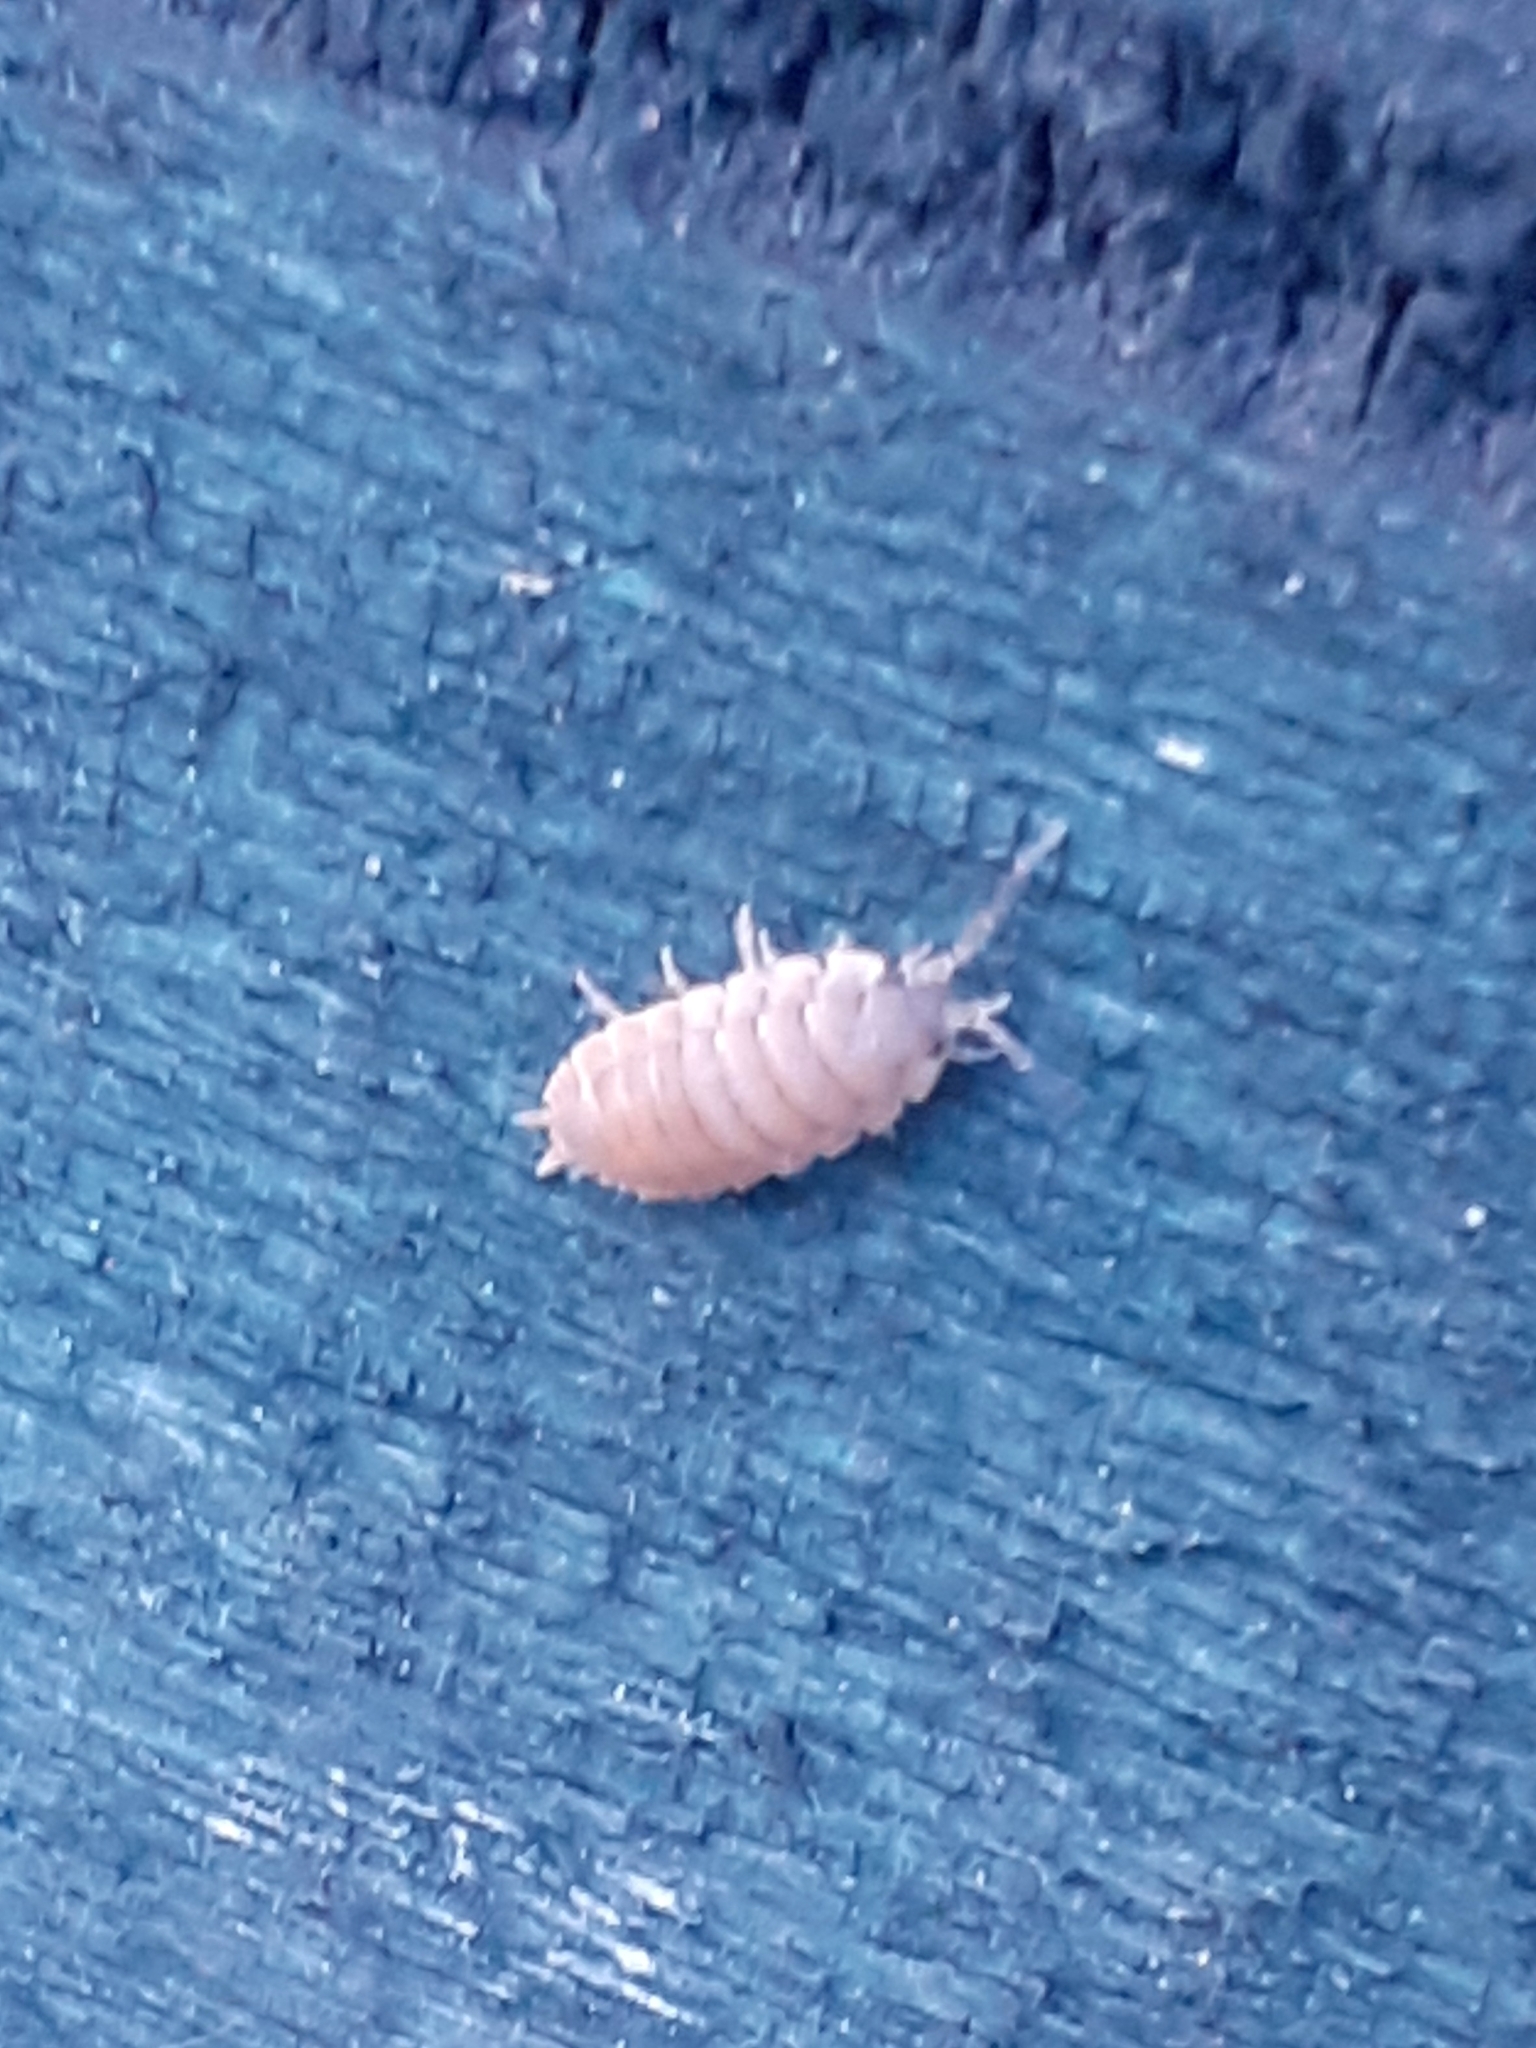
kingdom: Animalia
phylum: Arthropoda
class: Malacostraca
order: Isopoda
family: Porcellionidae
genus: Porcellio
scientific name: Porcellio scaber
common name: Common rough woodlouse
